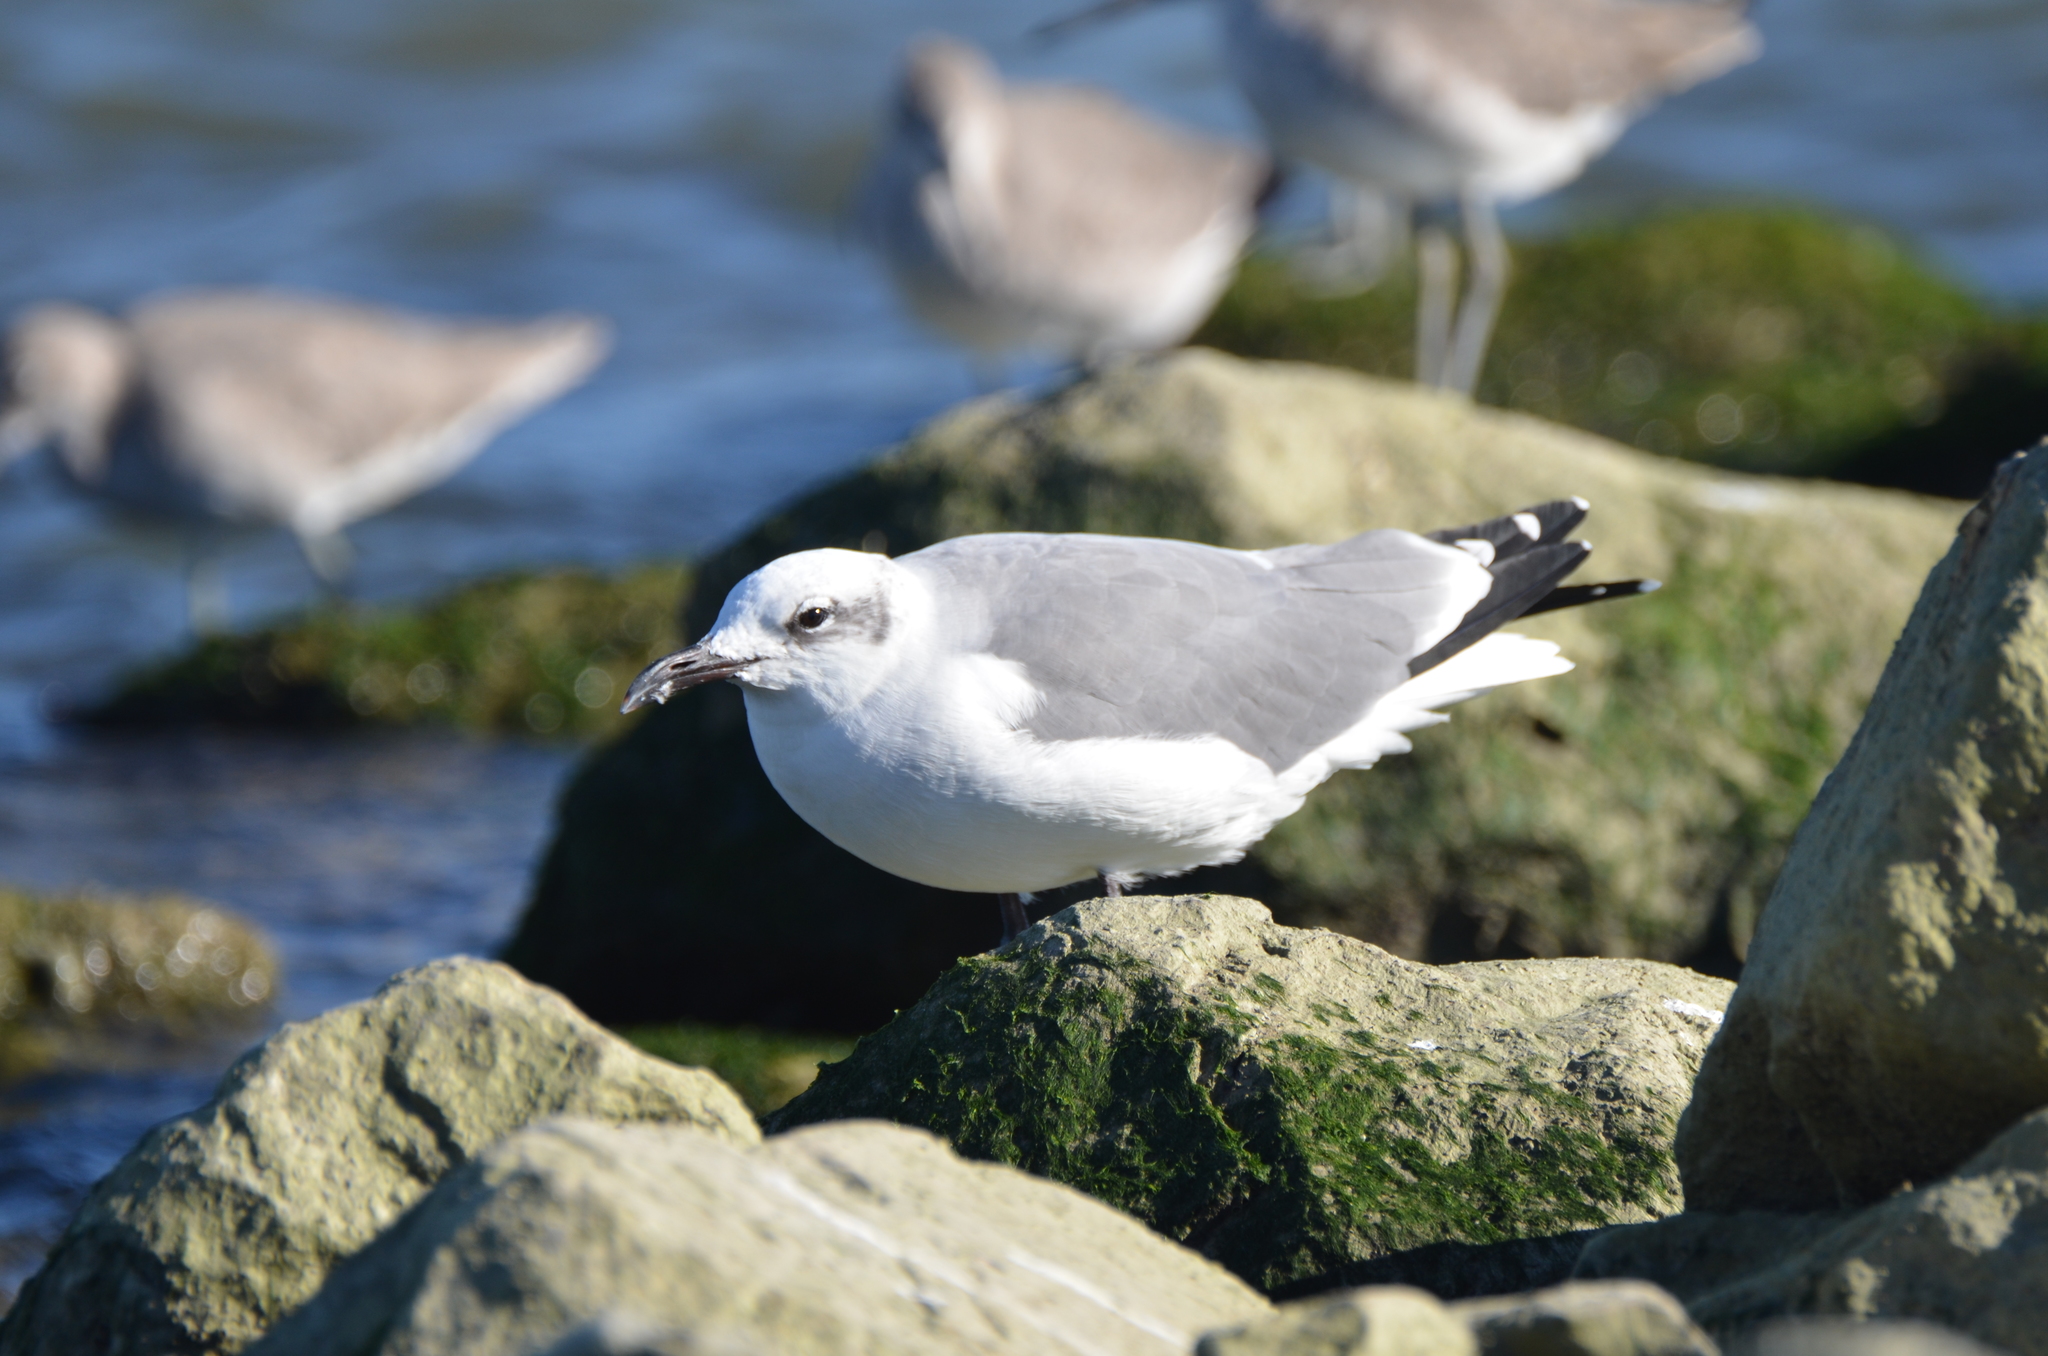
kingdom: Animalia
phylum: Chordata
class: Aves
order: Charadriiformes
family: Laridae
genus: Leucophaeus
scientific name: Leucophaeus atricilla
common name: Laughing gull
